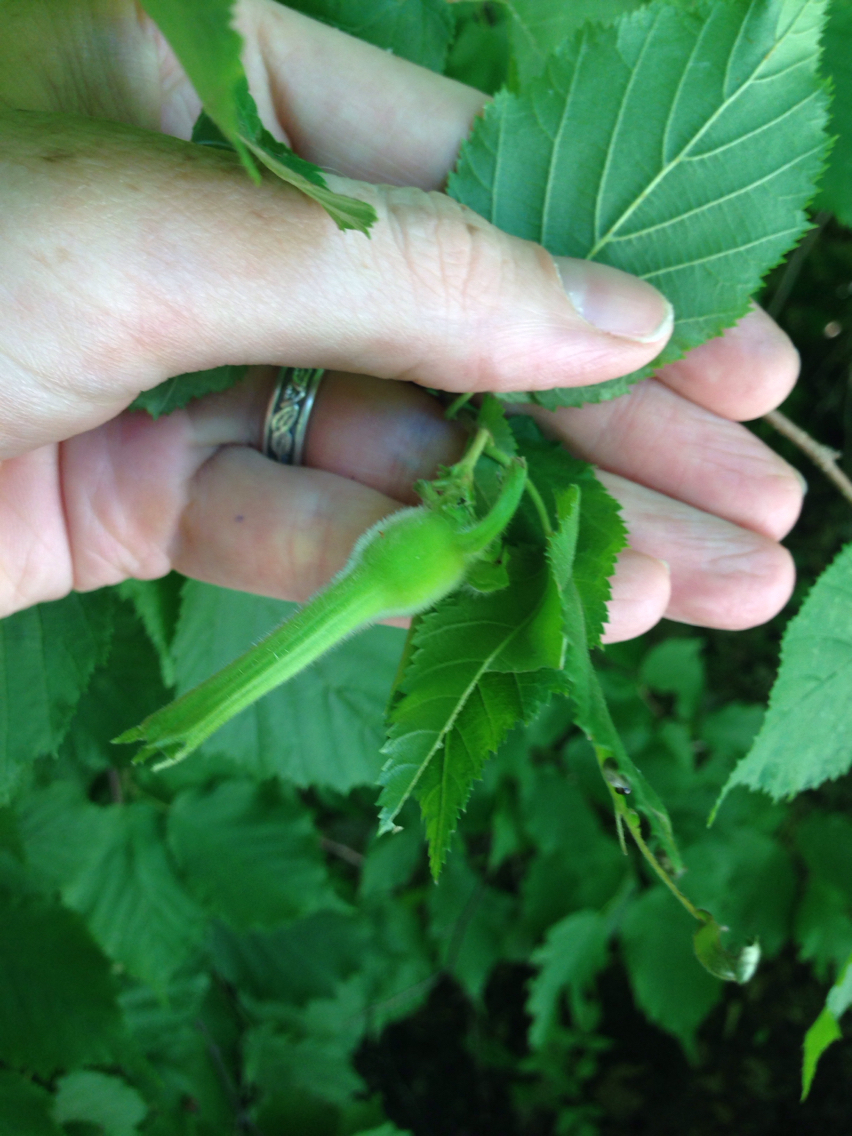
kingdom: Plantae
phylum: Tracheophyta
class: Magnoliopsida
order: Fagales
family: Betulaceae
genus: Corylus
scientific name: Corylus cornuta
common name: Beaked hazel
